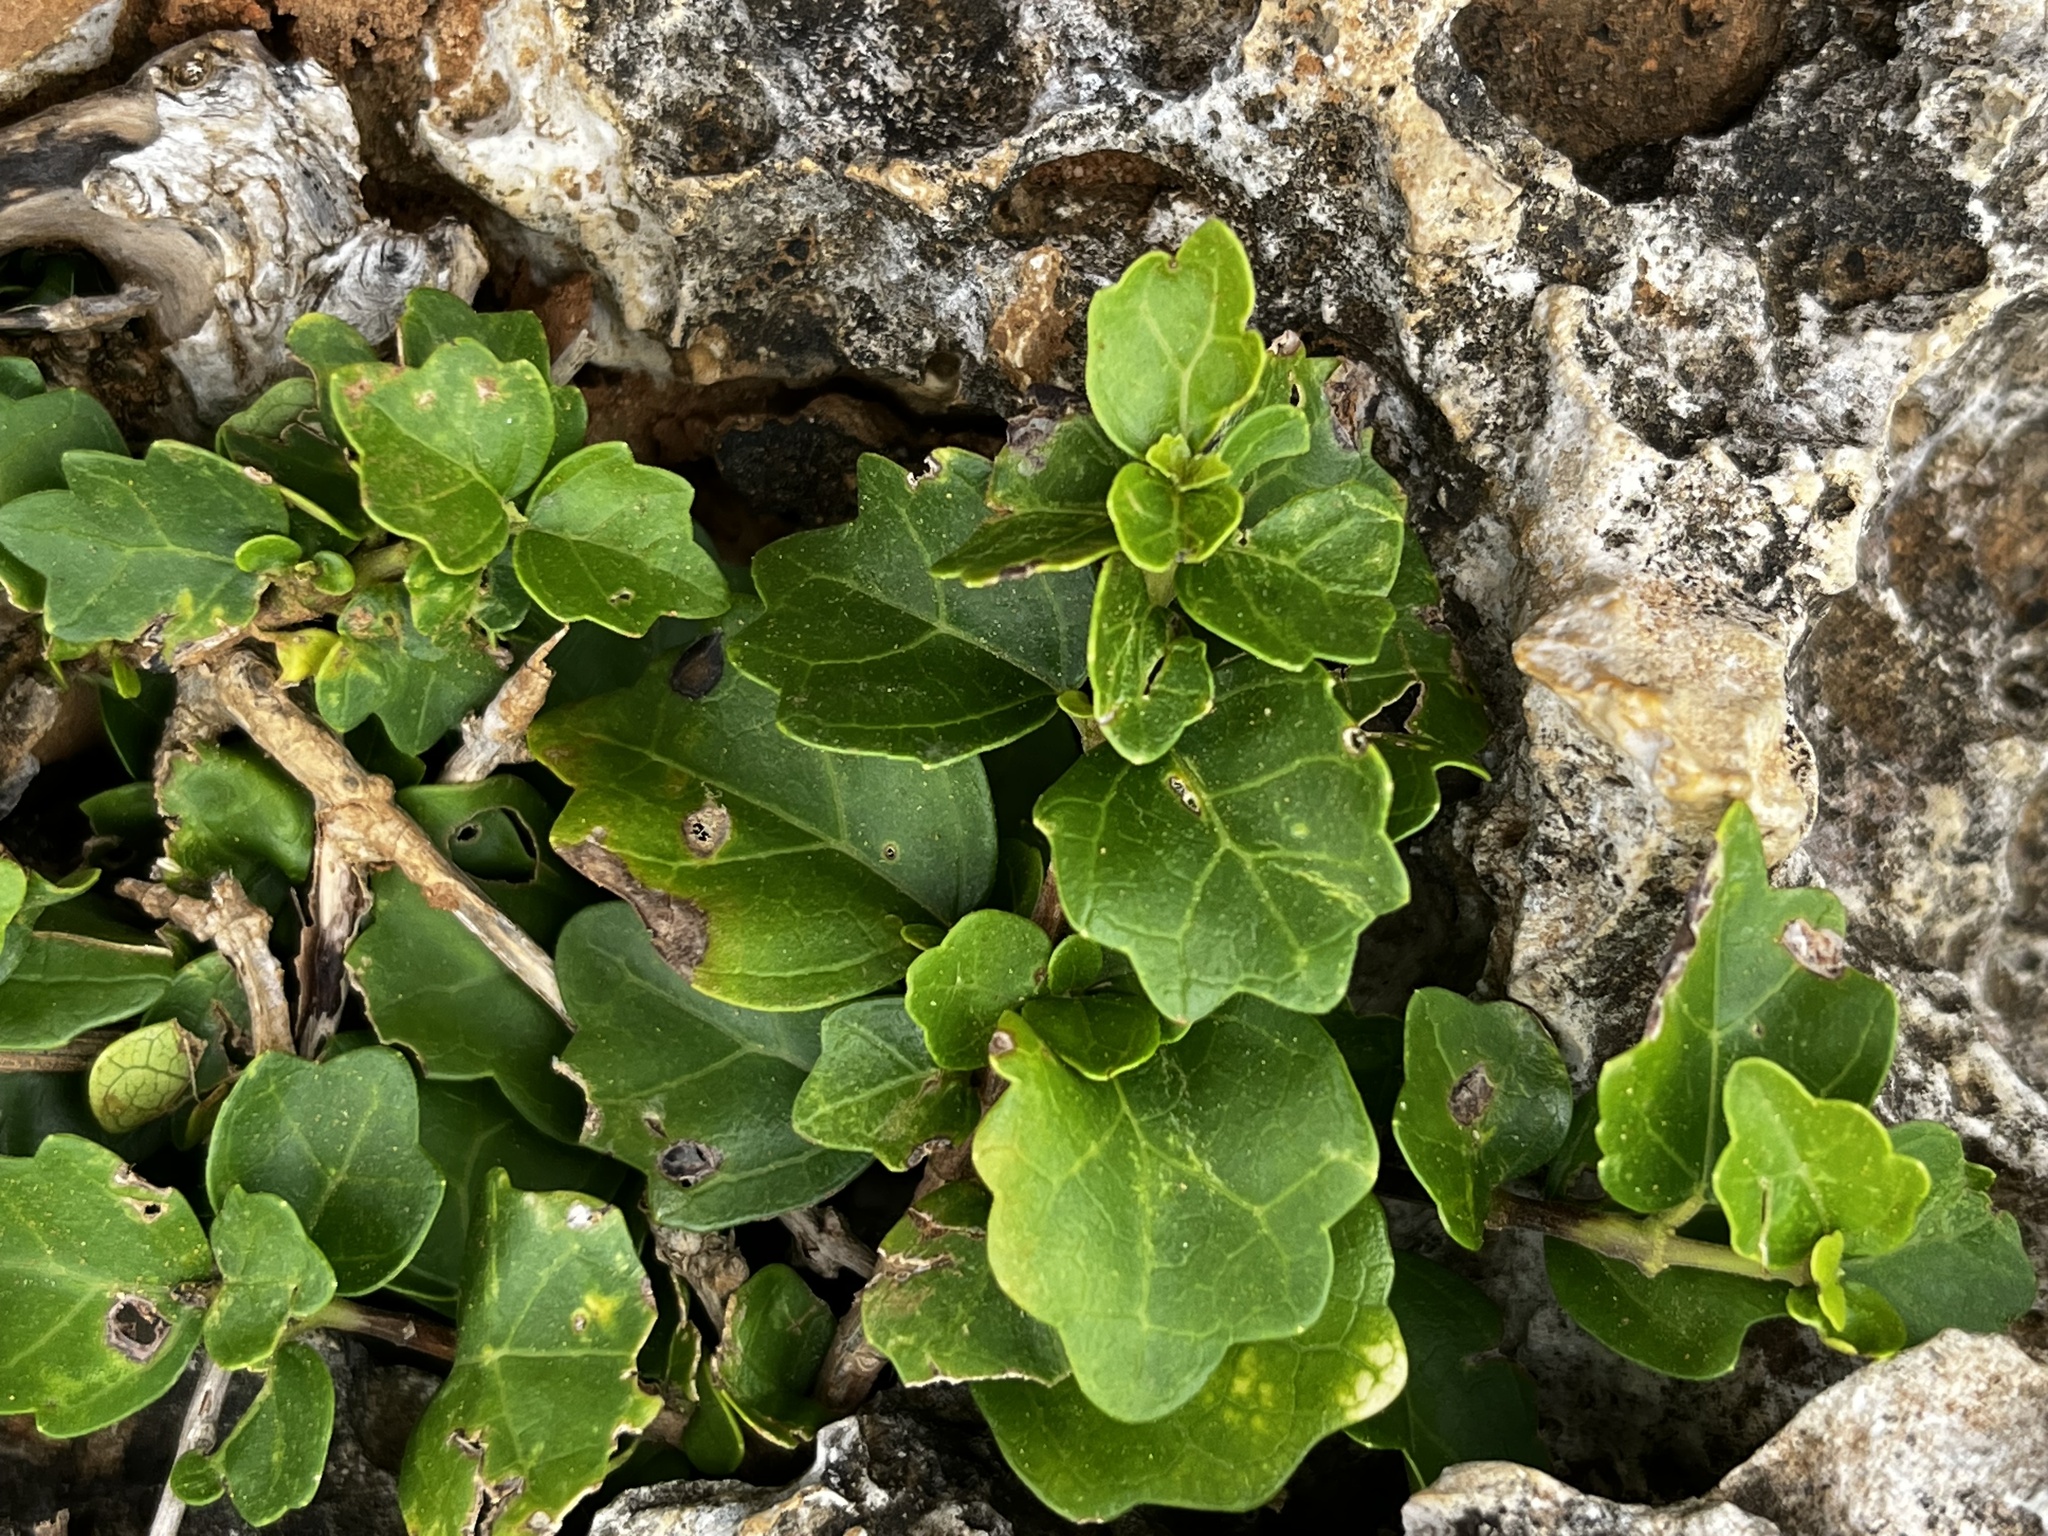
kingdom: Plantae
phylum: Tracheophyta
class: Magnoliopsida
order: Lamiales
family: Lamiaceae
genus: Premna
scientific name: Premna hengchunensis
